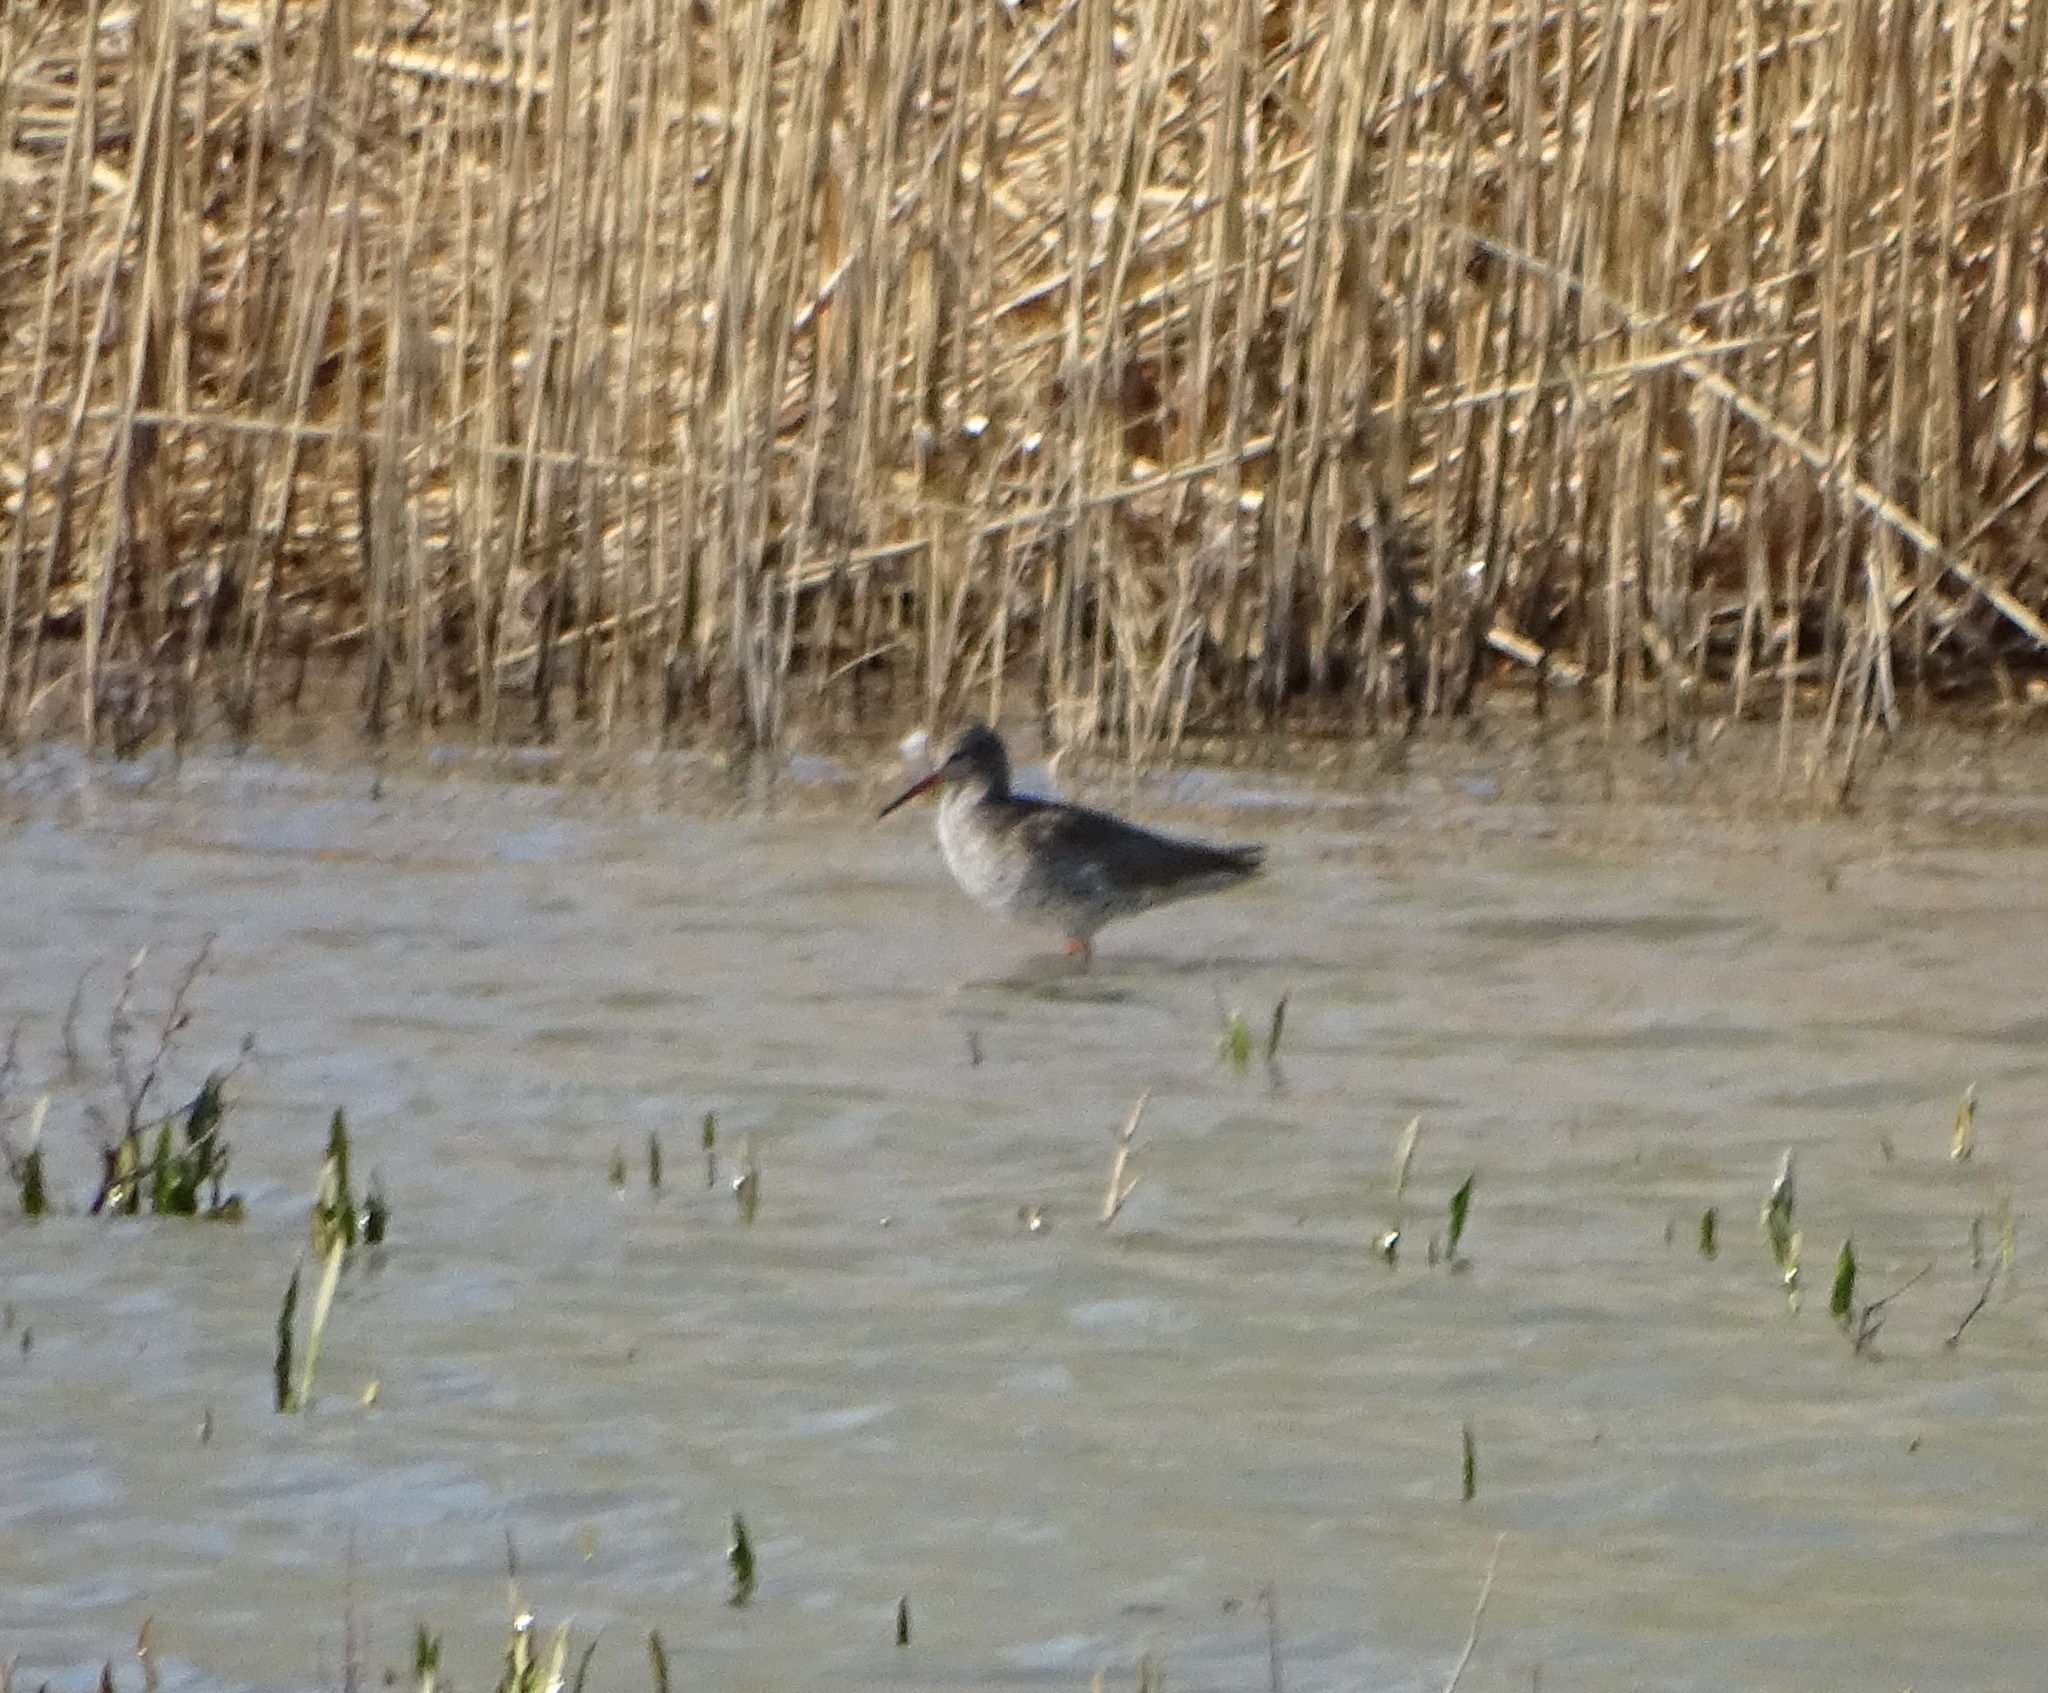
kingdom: Animalia
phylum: Chordata
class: Aves
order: Charadriiformes
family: Scolopacidae
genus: Tringa
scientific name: Tringa totanus
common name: Common redshank
